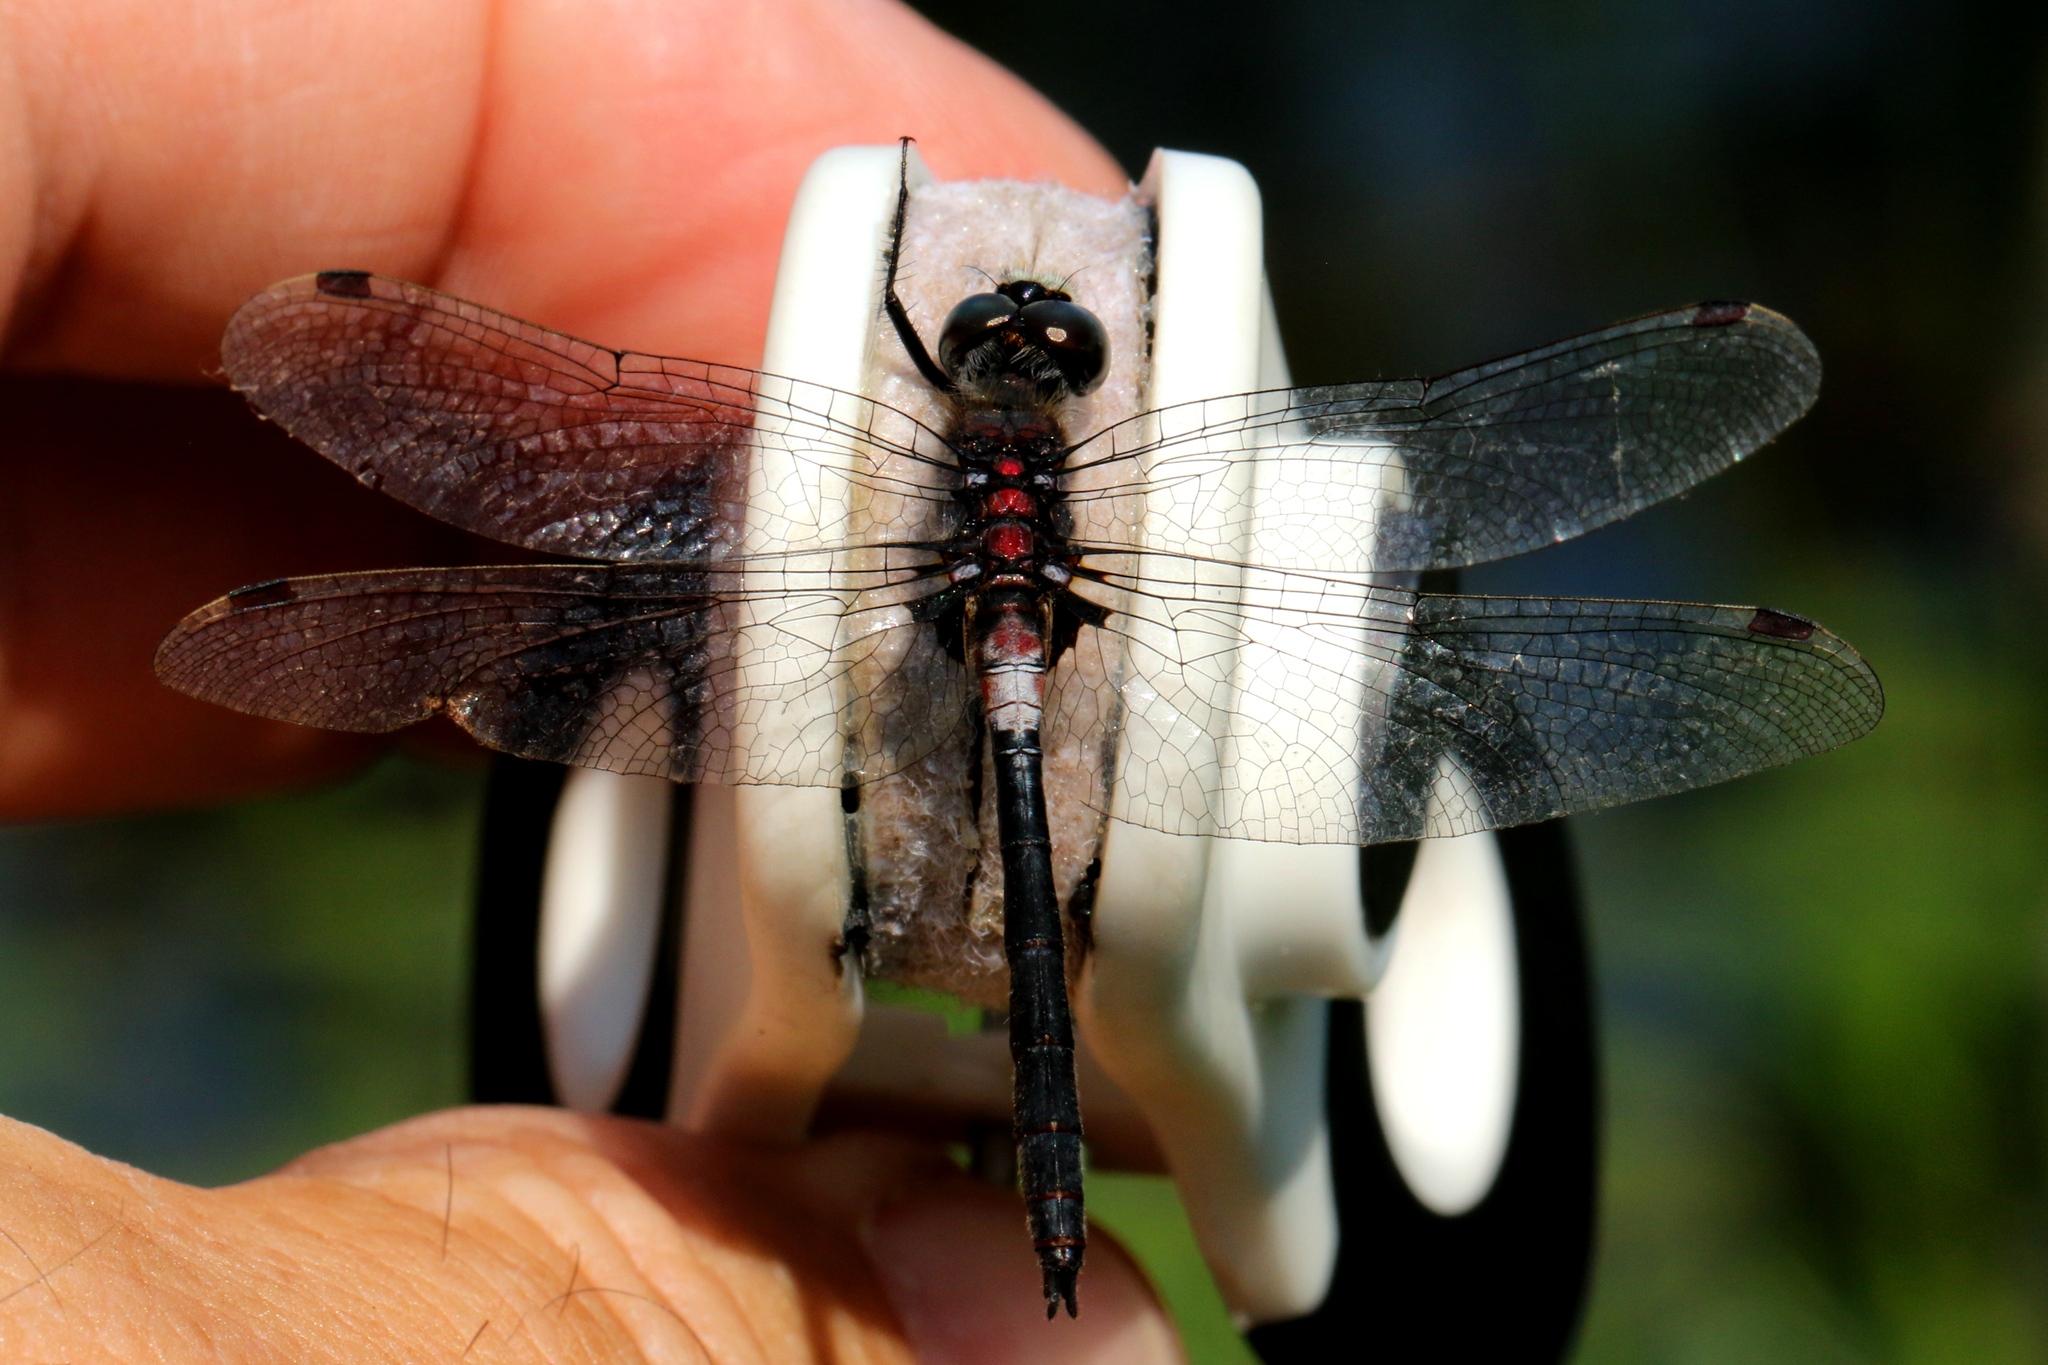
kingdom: Animalia
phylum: Arthropoda
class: Insecta
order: Odonata
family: Libellulidae
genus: Leucorrhinia
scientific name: Leucorrhinia proxima
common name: Belted whiteface
